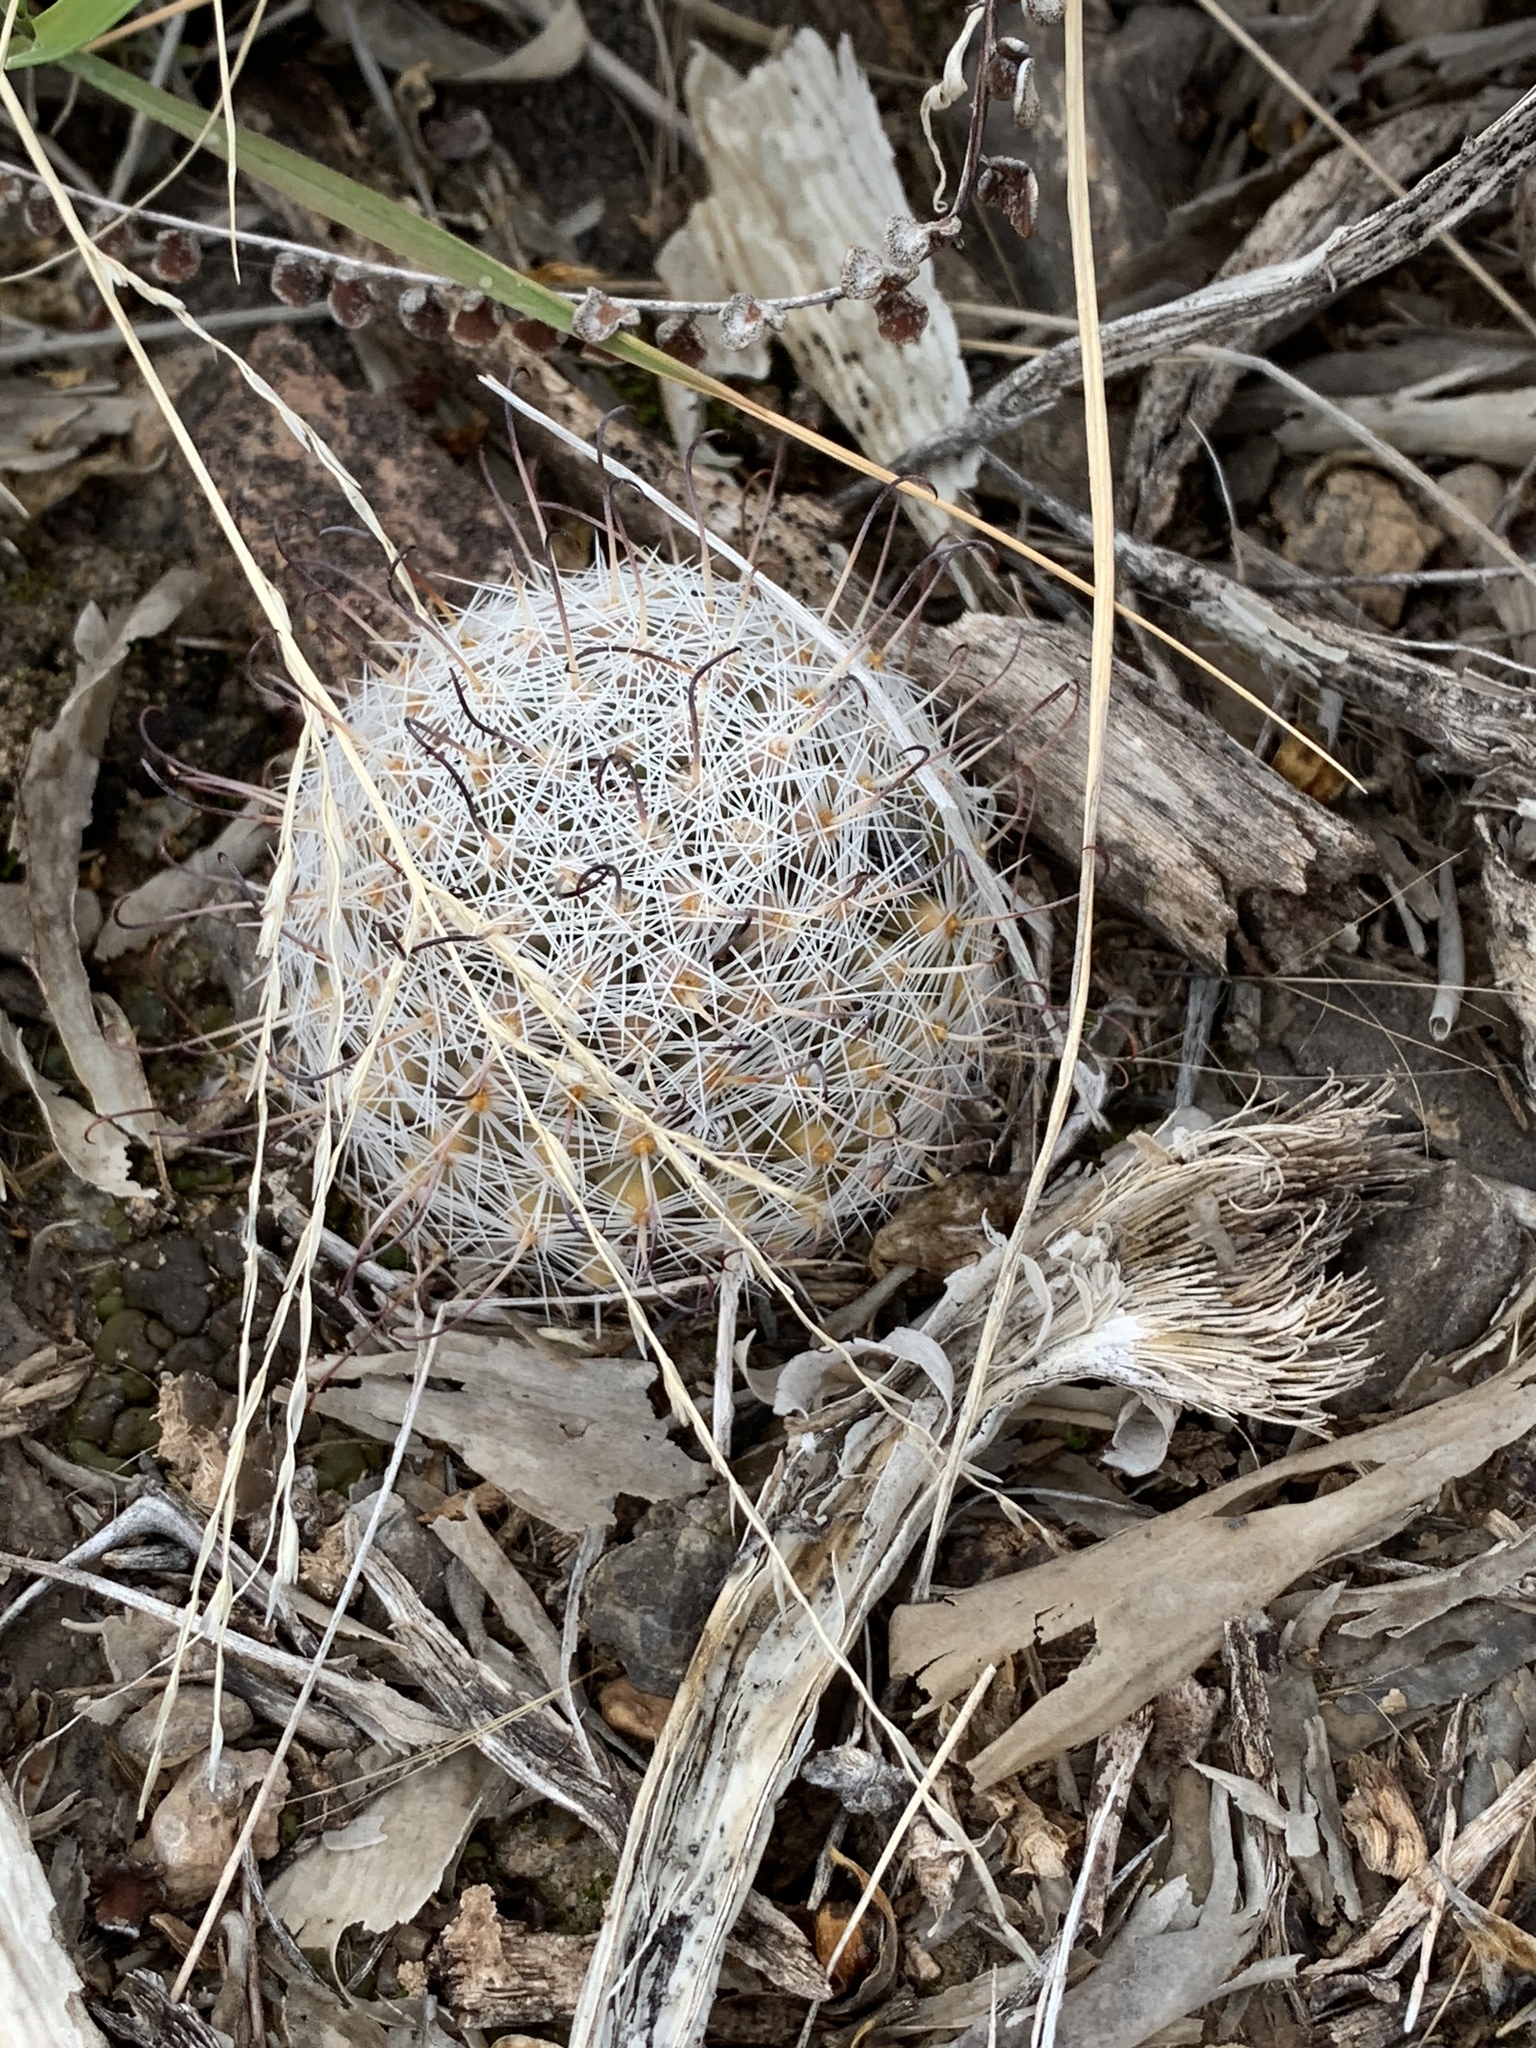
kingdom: Plantae
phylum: Tracheophyta
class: Magnoliopsida
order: Caryophyllales
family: Cactaceae
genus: Cochemiea
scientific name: Cochemiea grahamii
